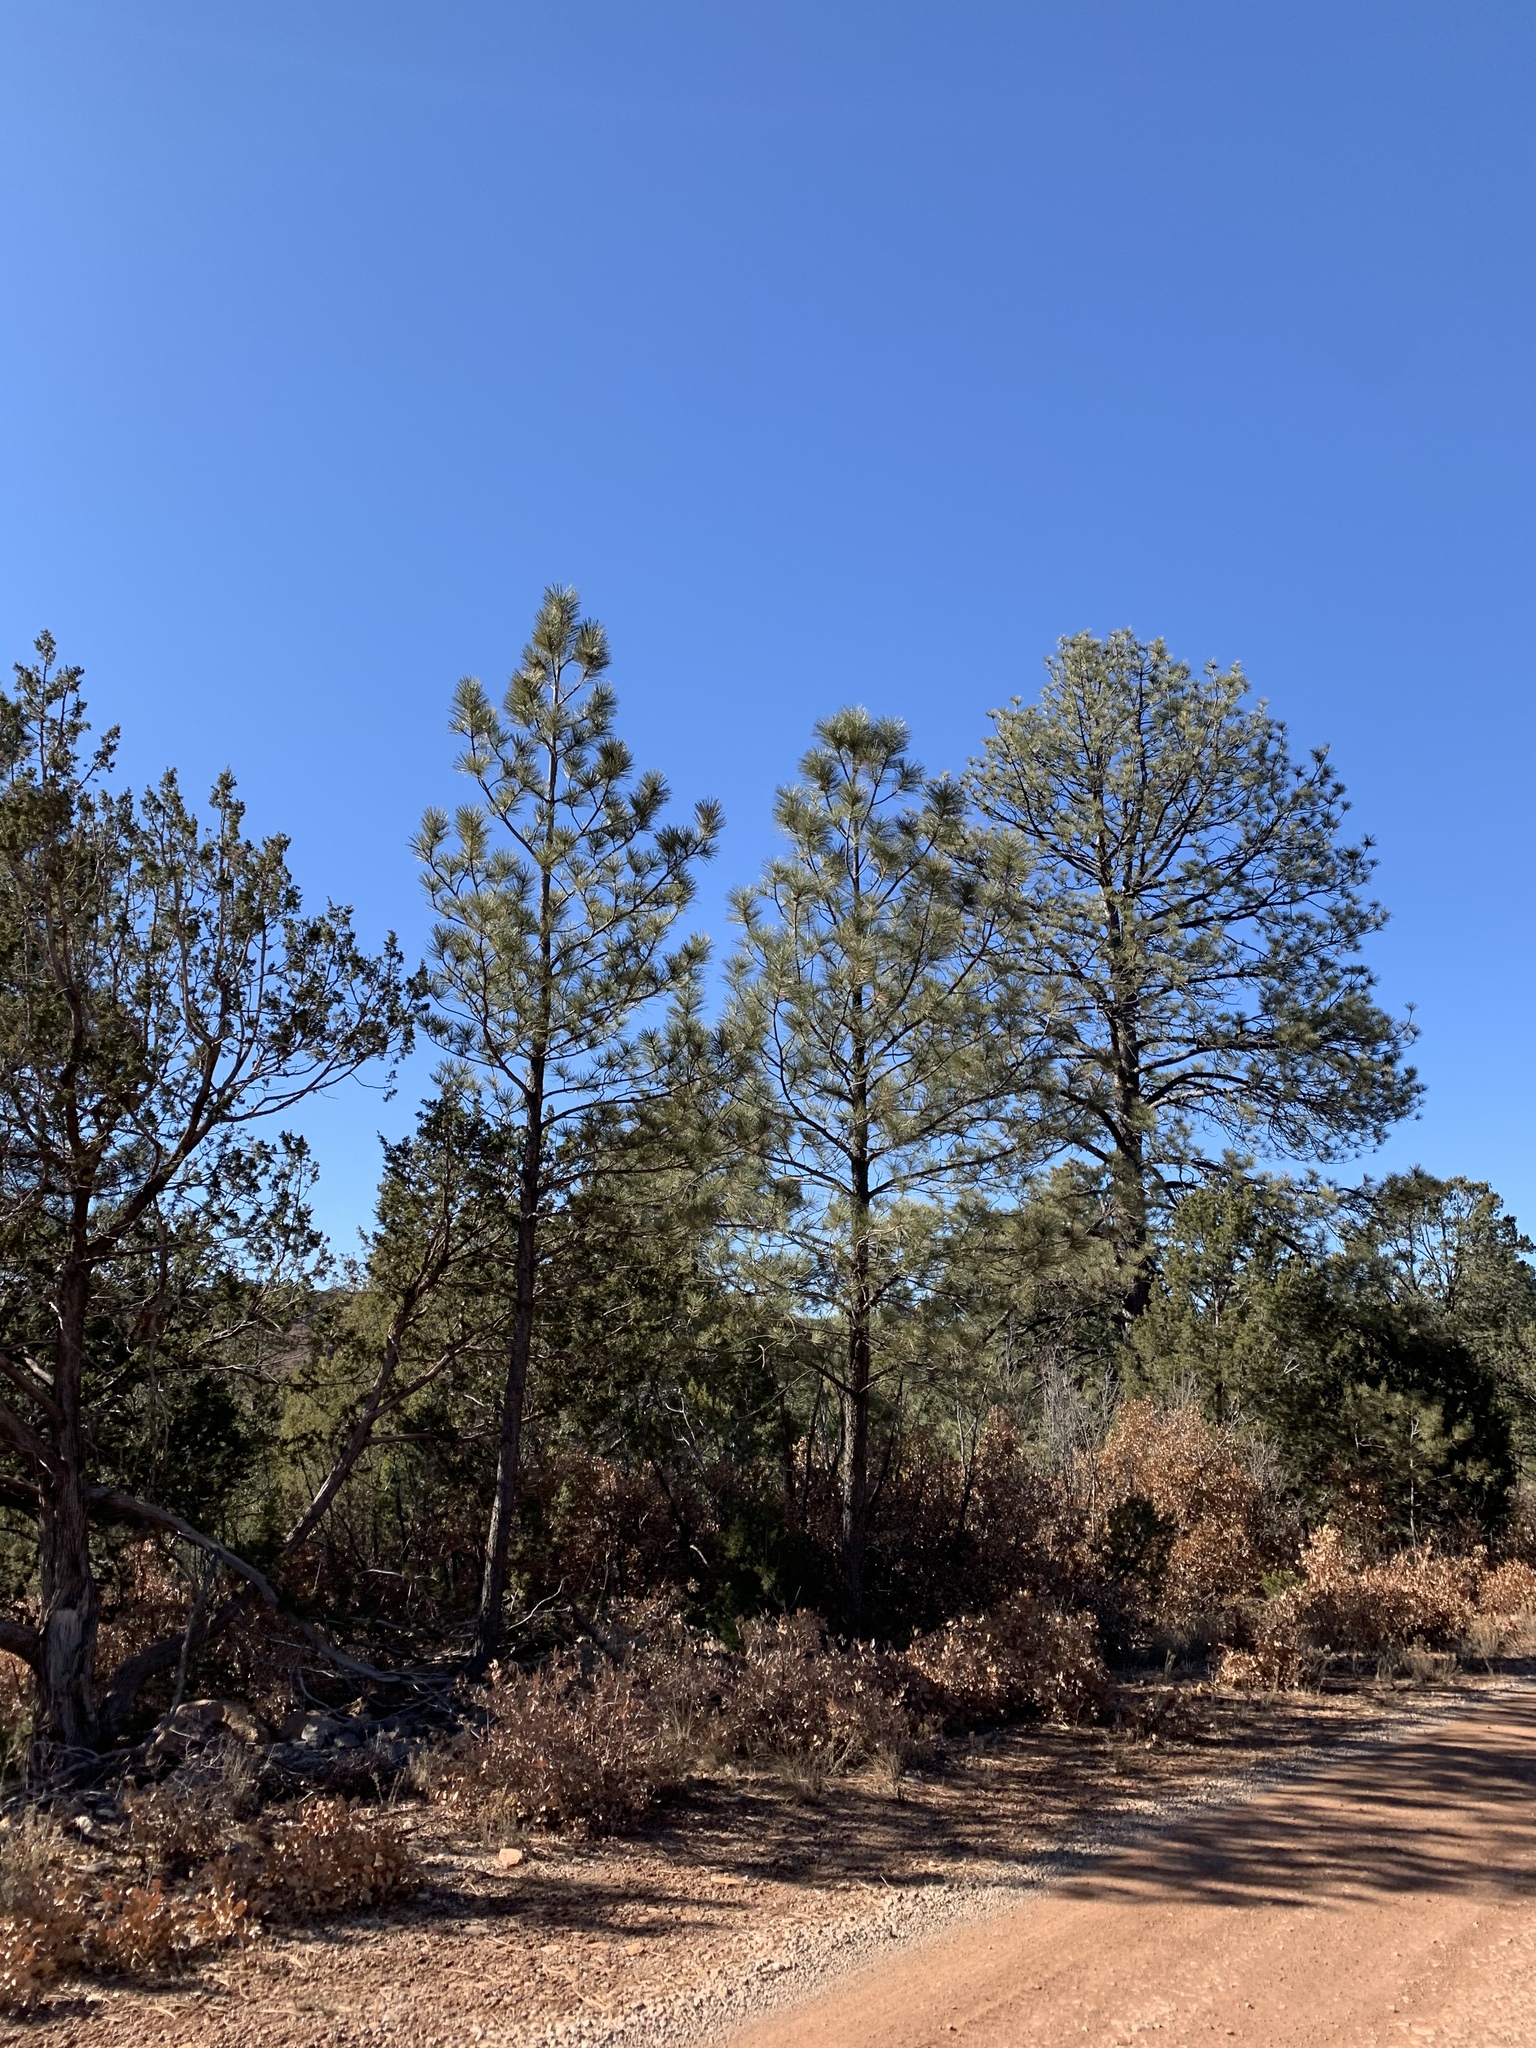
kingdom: Plantae
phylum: Tracheophyta
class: Pinopsida
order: Pinales
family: Pinaceae
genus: Pinus
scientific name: Pinus ponderosa
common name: Western yellow-pine
